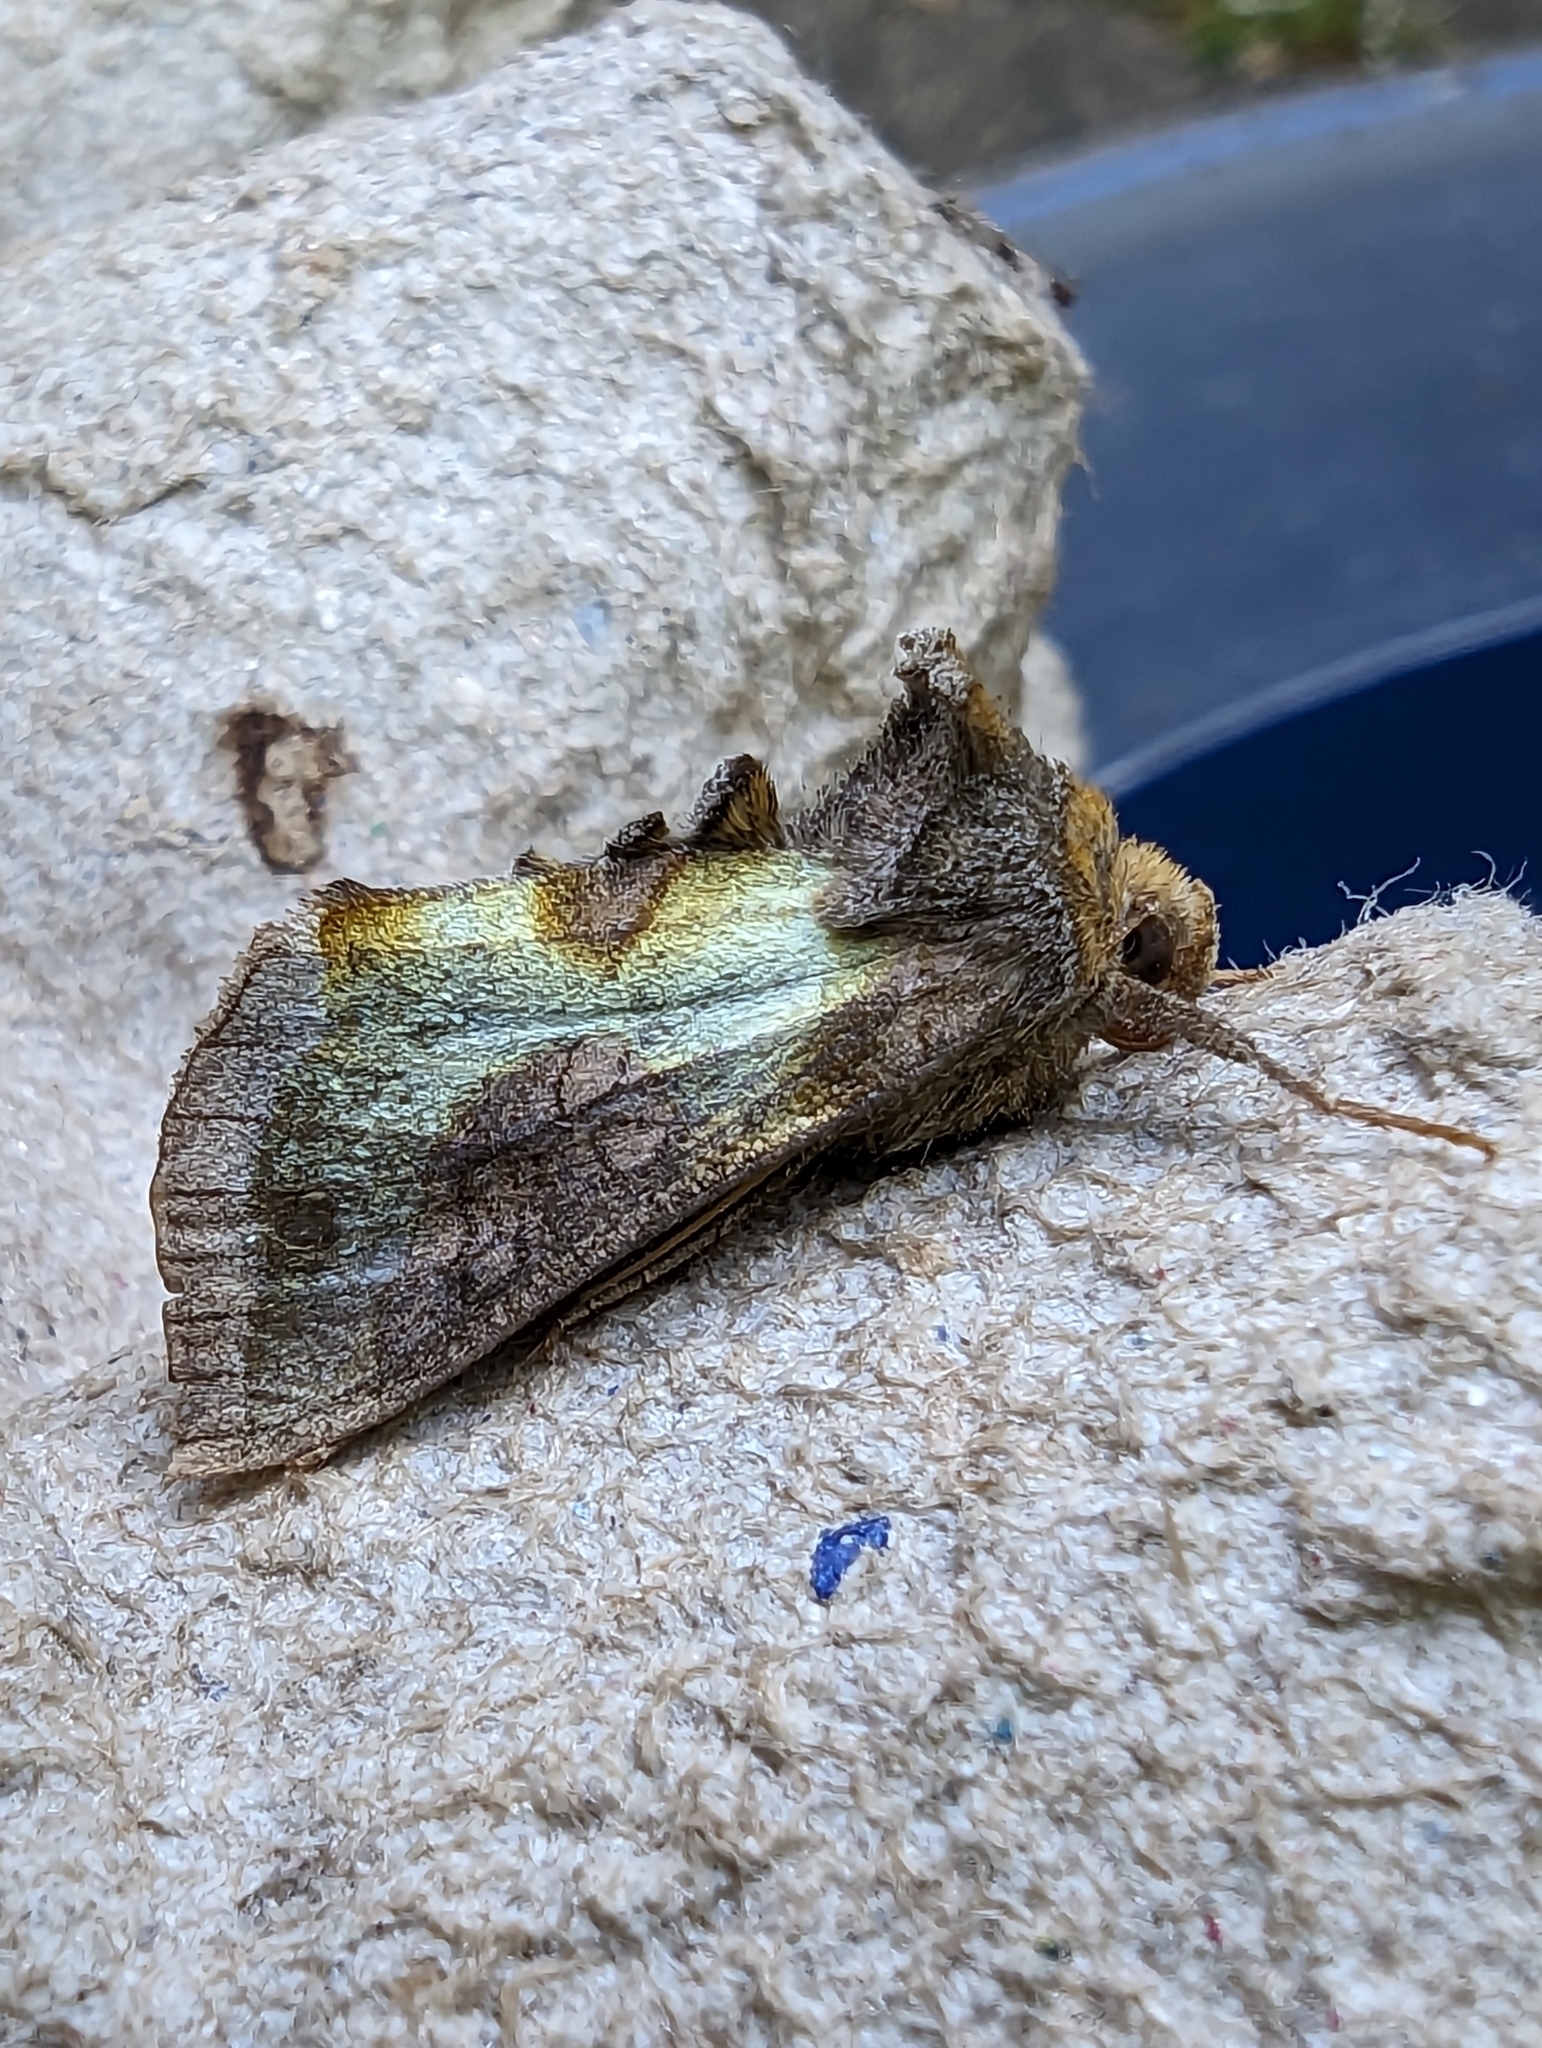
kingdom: Animalia
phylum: Arthropoda
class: Insecta
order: Lepidoptera
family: Noctuidae
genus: Diachrysia
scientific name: Diachrysia chrysitis
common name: Burnished brass
